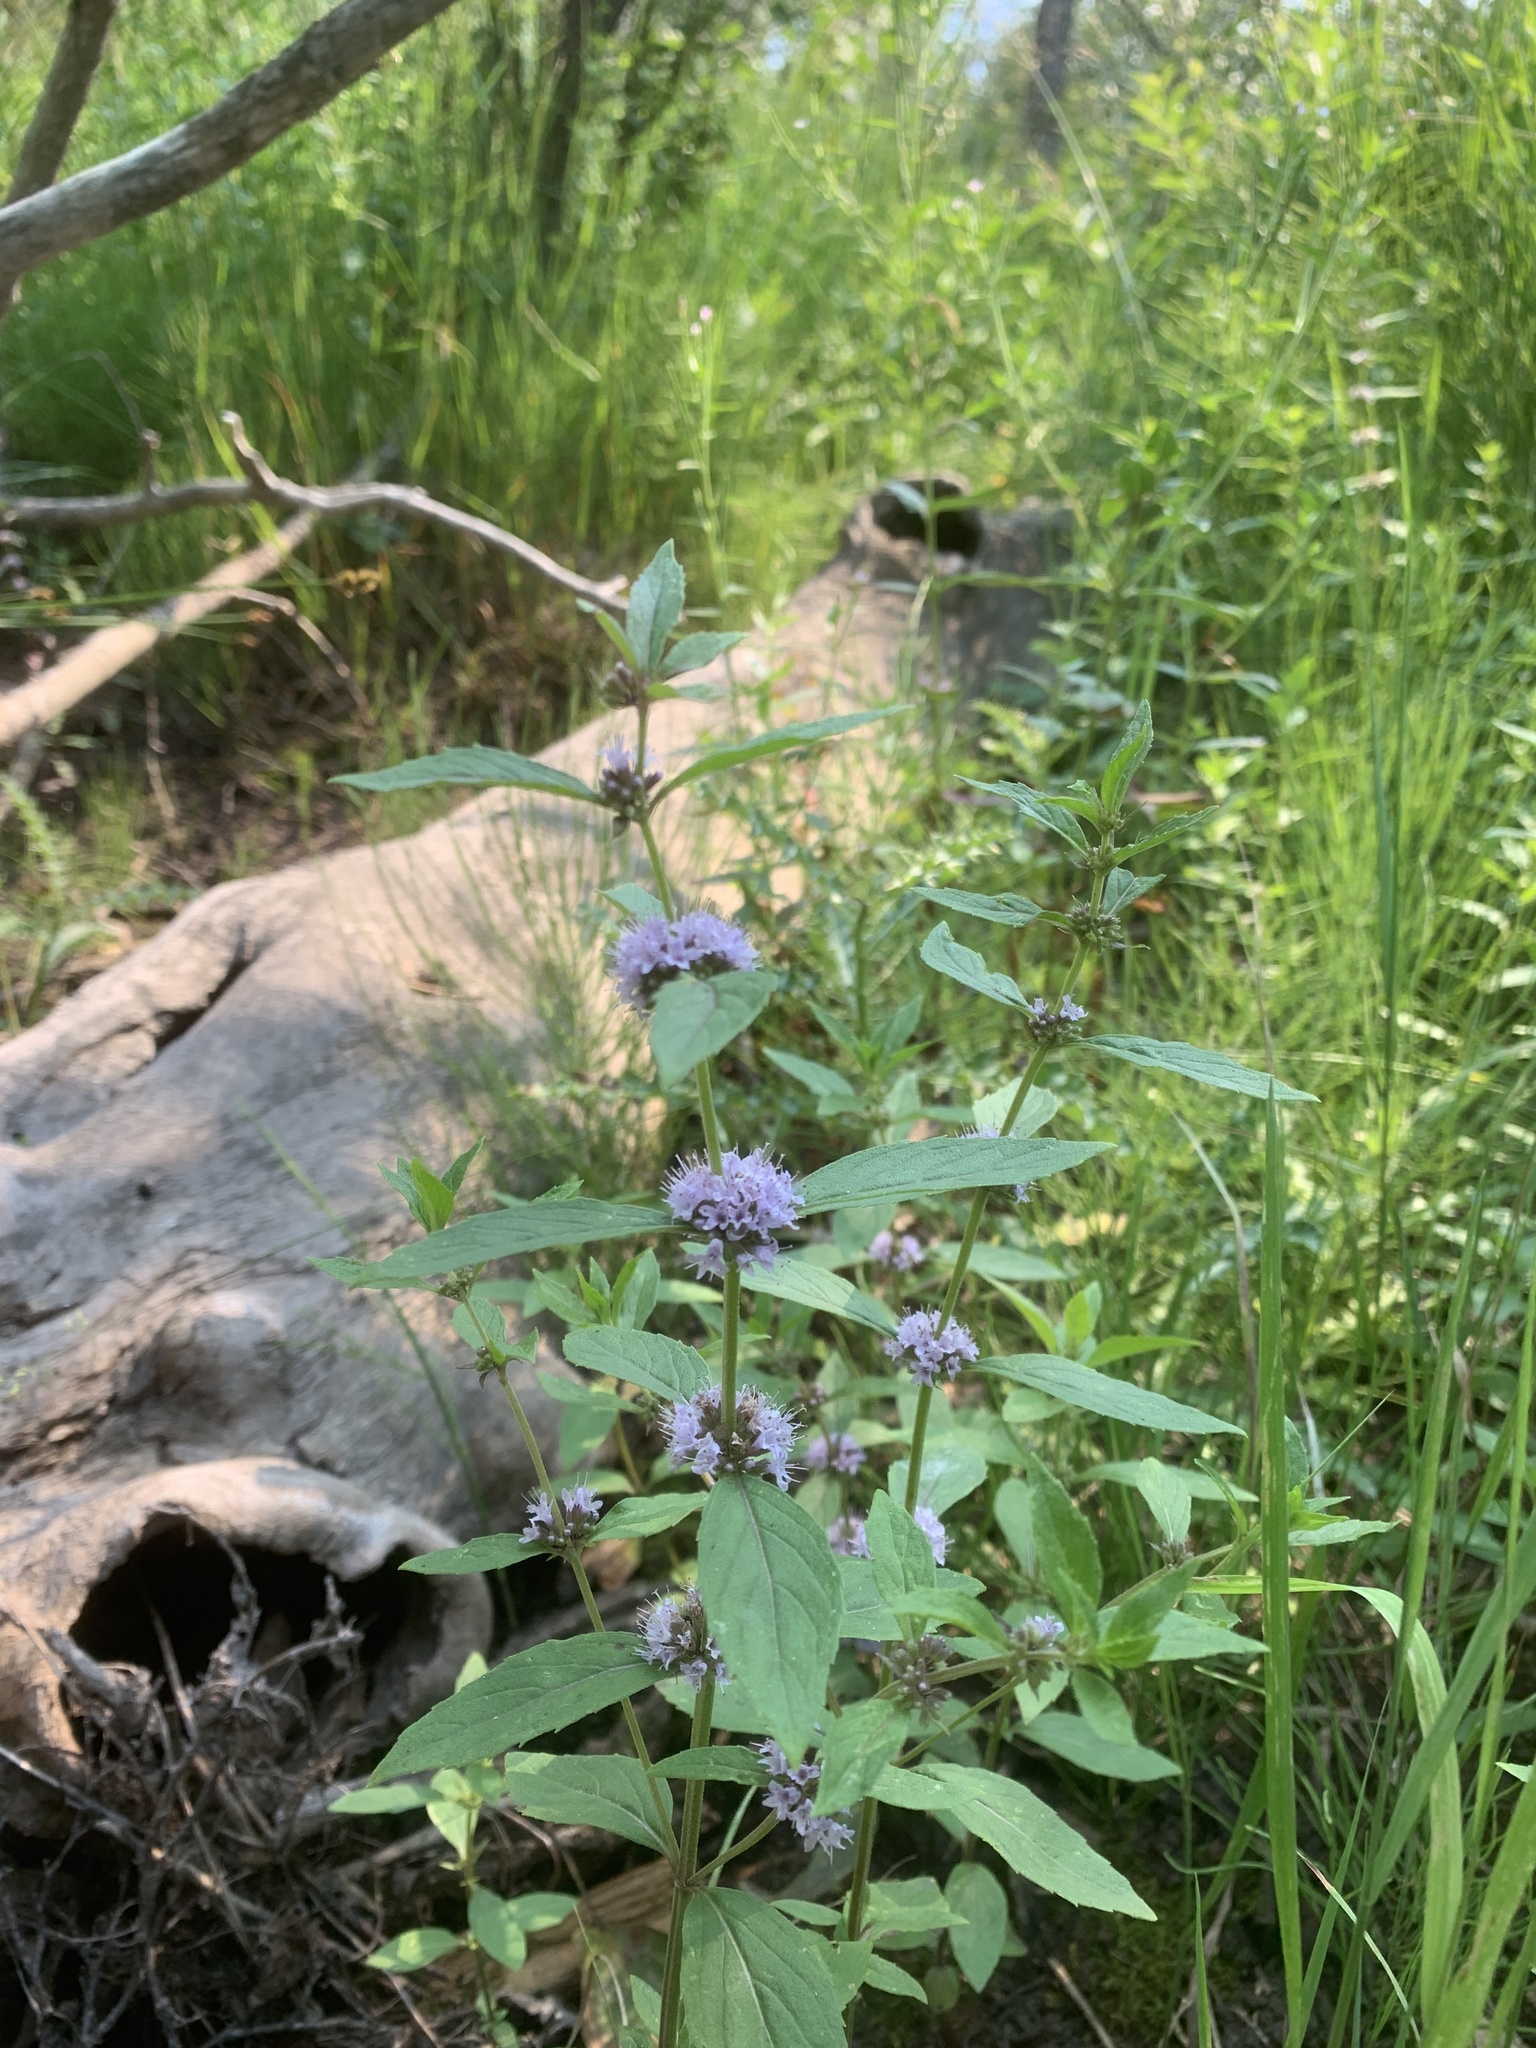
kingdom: Plantae
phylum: Tracheophyta
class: Magnoliopsida
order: Lamiales
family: Lamiaceae
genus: Mentha
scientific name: Mentha canadensis
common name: American corn mint
